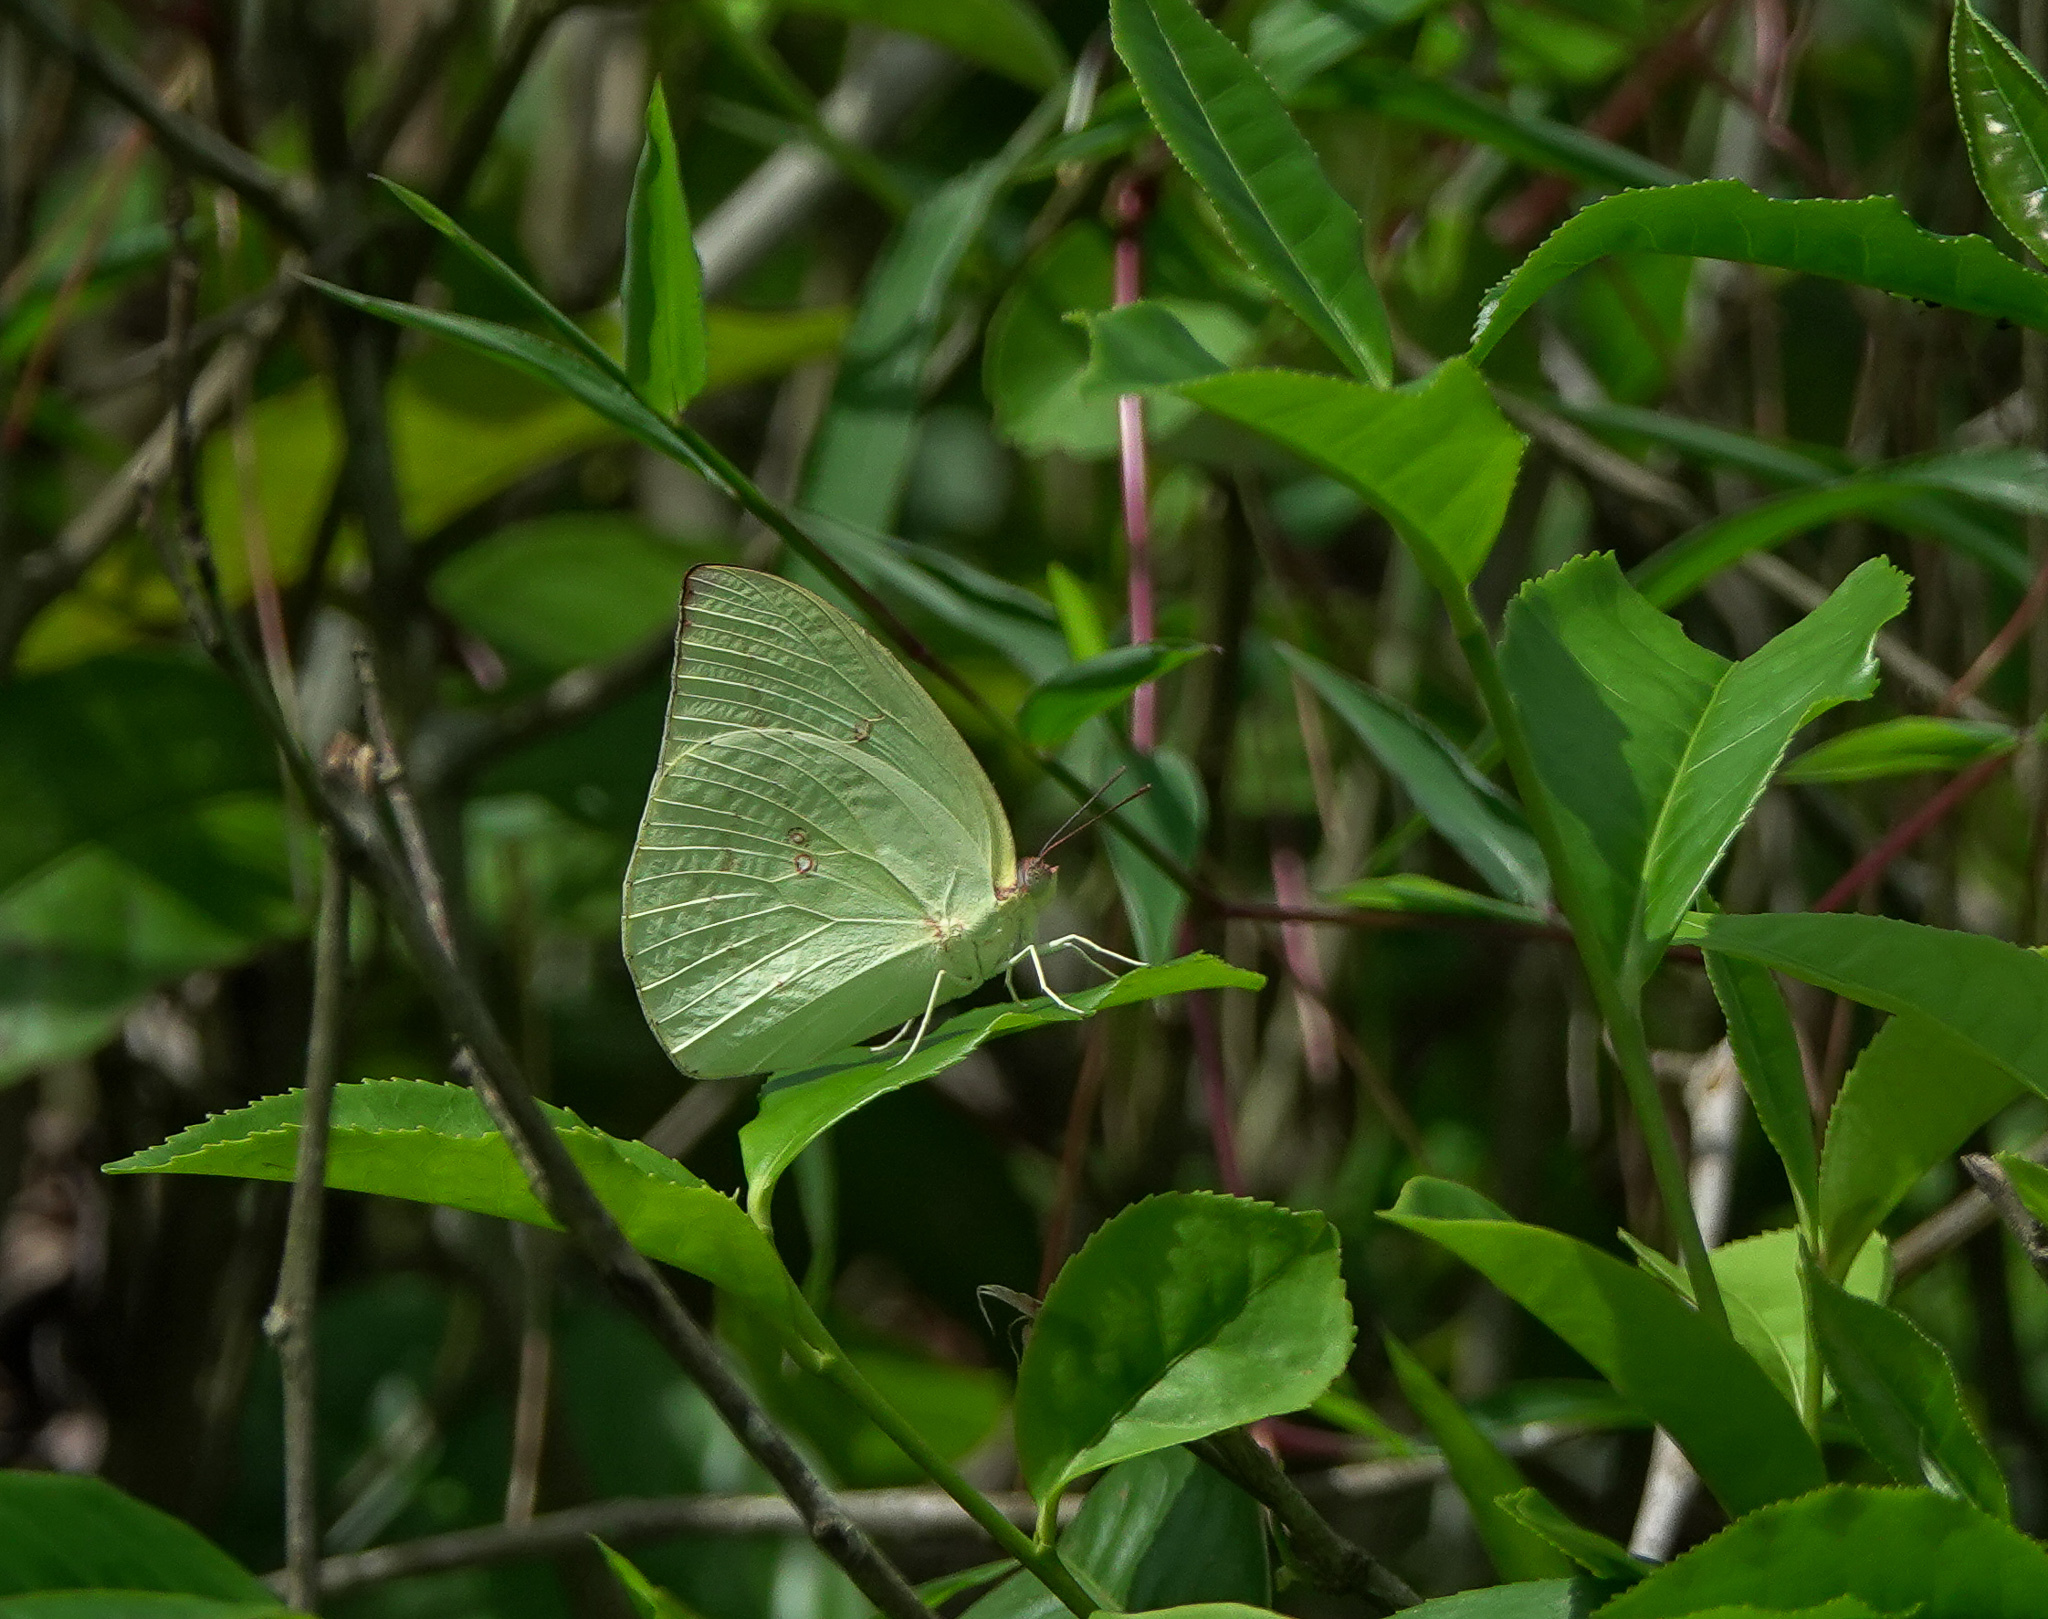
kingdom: Animalia
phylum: Arthropoda
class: Insecta
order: Lepidoptera
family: Pieridae
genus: Catopsilia
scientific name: Catopsilia pomona
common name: Common emigrant
